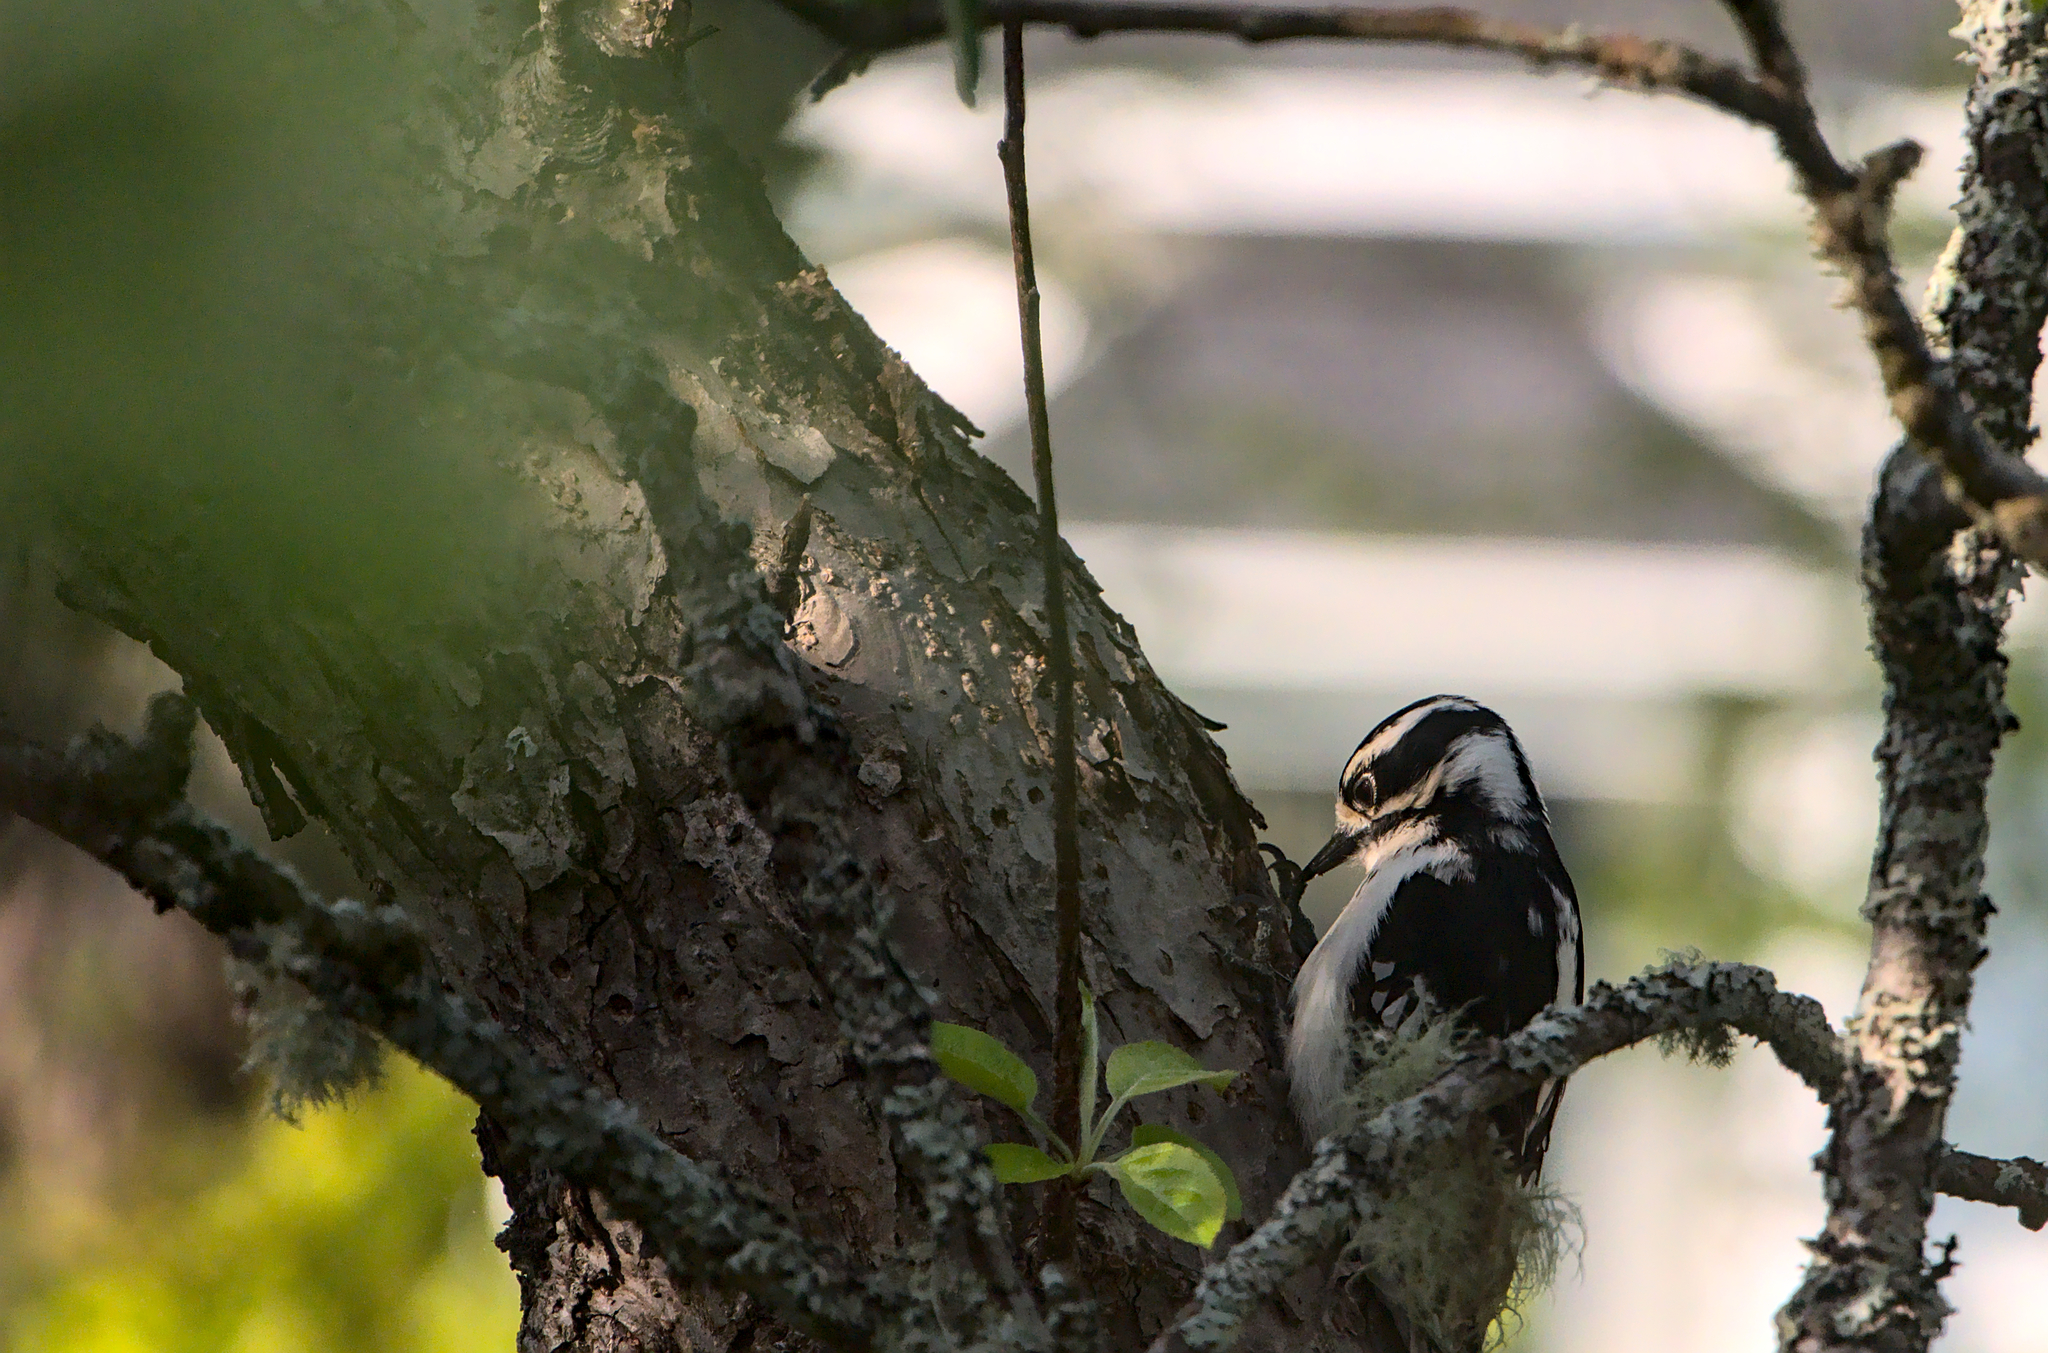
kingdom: Animalia
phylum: Chordata
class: Aves
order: Piciformes
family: Picidae
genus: Dryobates
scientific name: Dryobates pubescens
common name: Downy woodpecker
